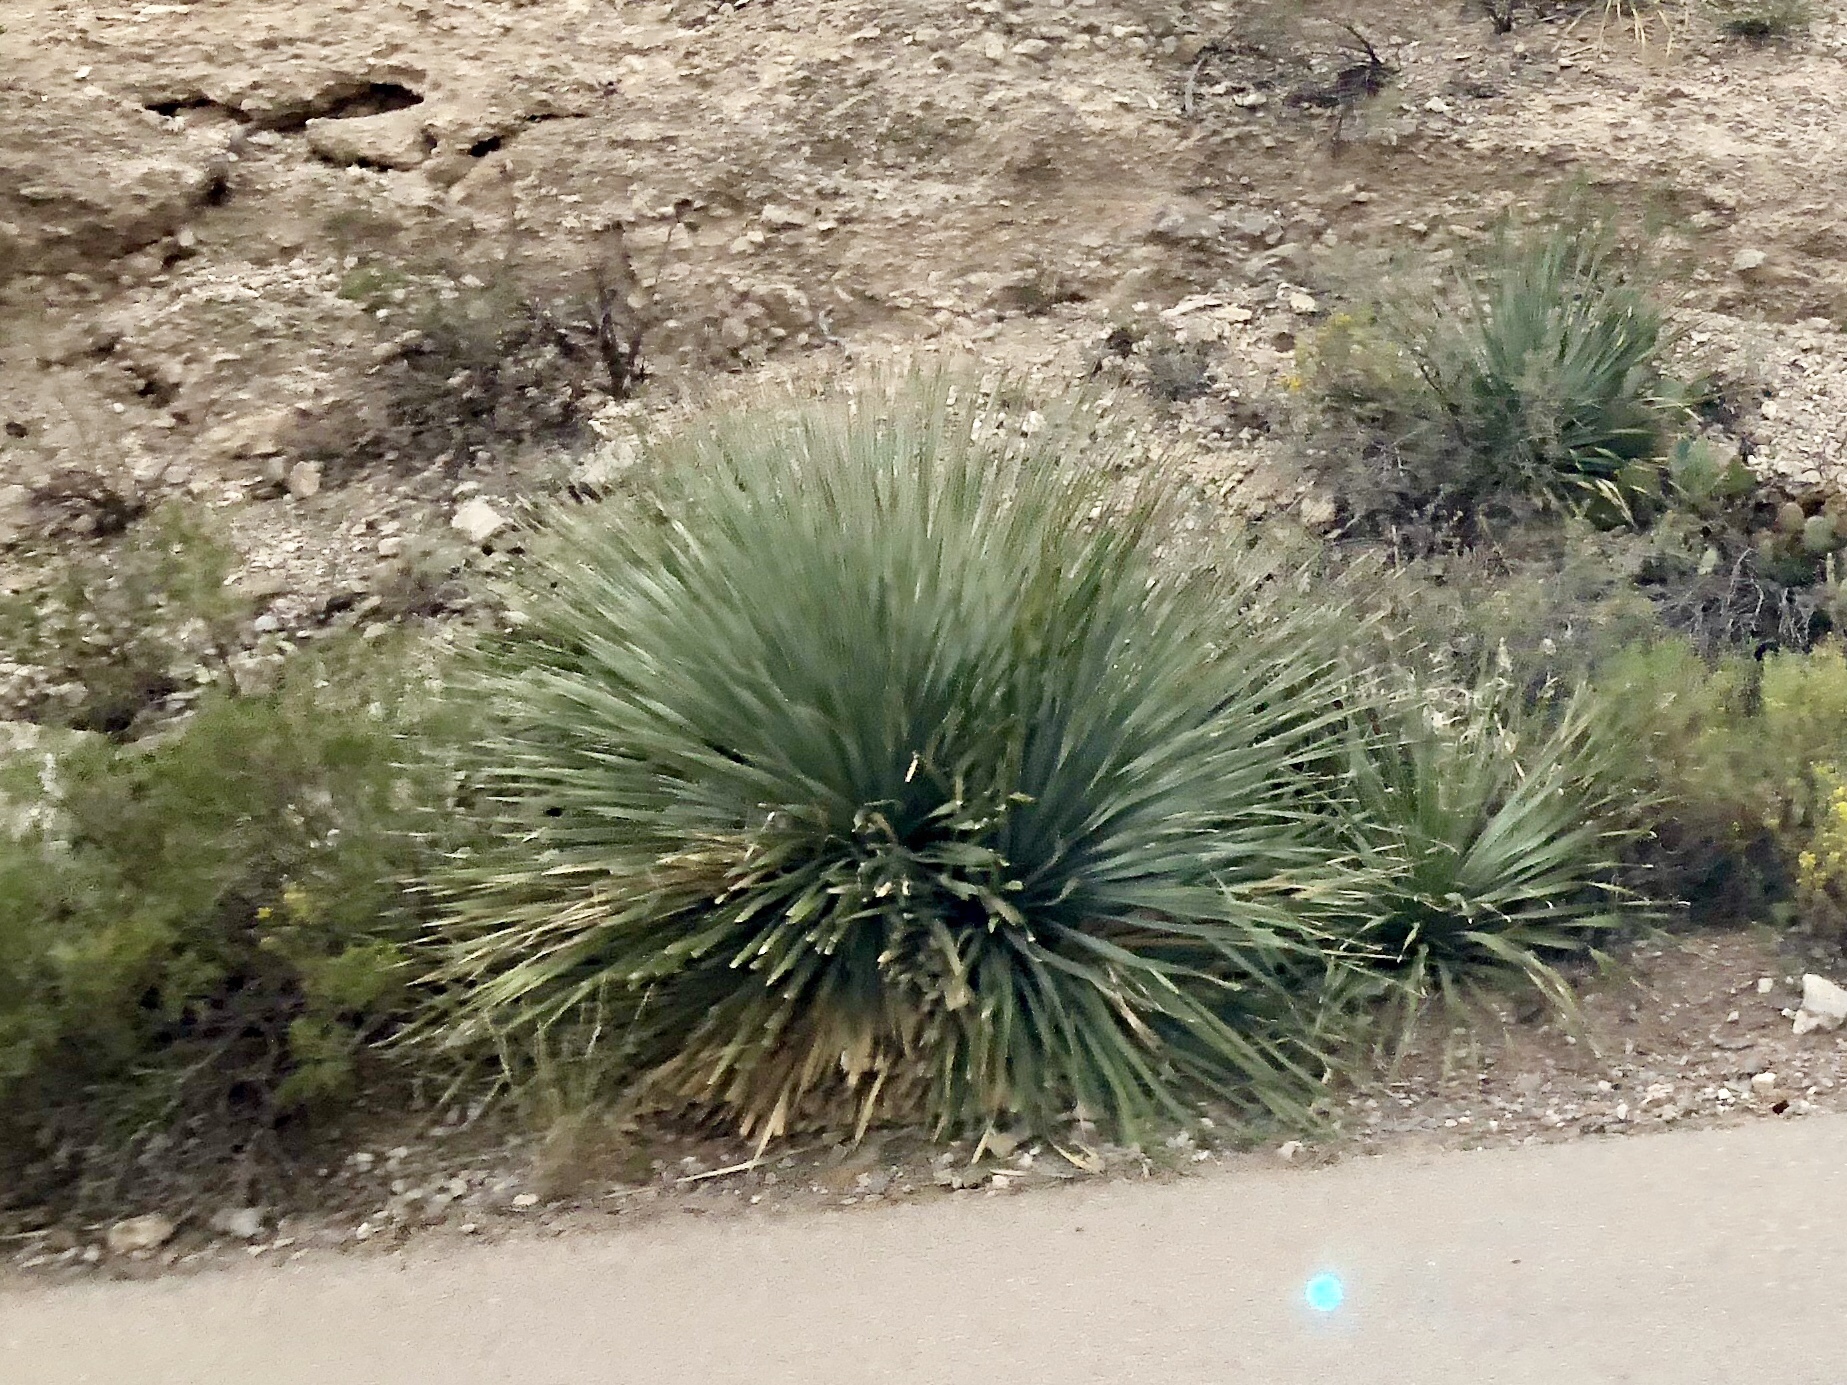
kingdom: Plantae
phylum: Tracheophyta
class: Liliopsida
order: Asparagales
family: Asparagaceae
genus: Dasylirion
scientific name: Dasylirion wheeleri
